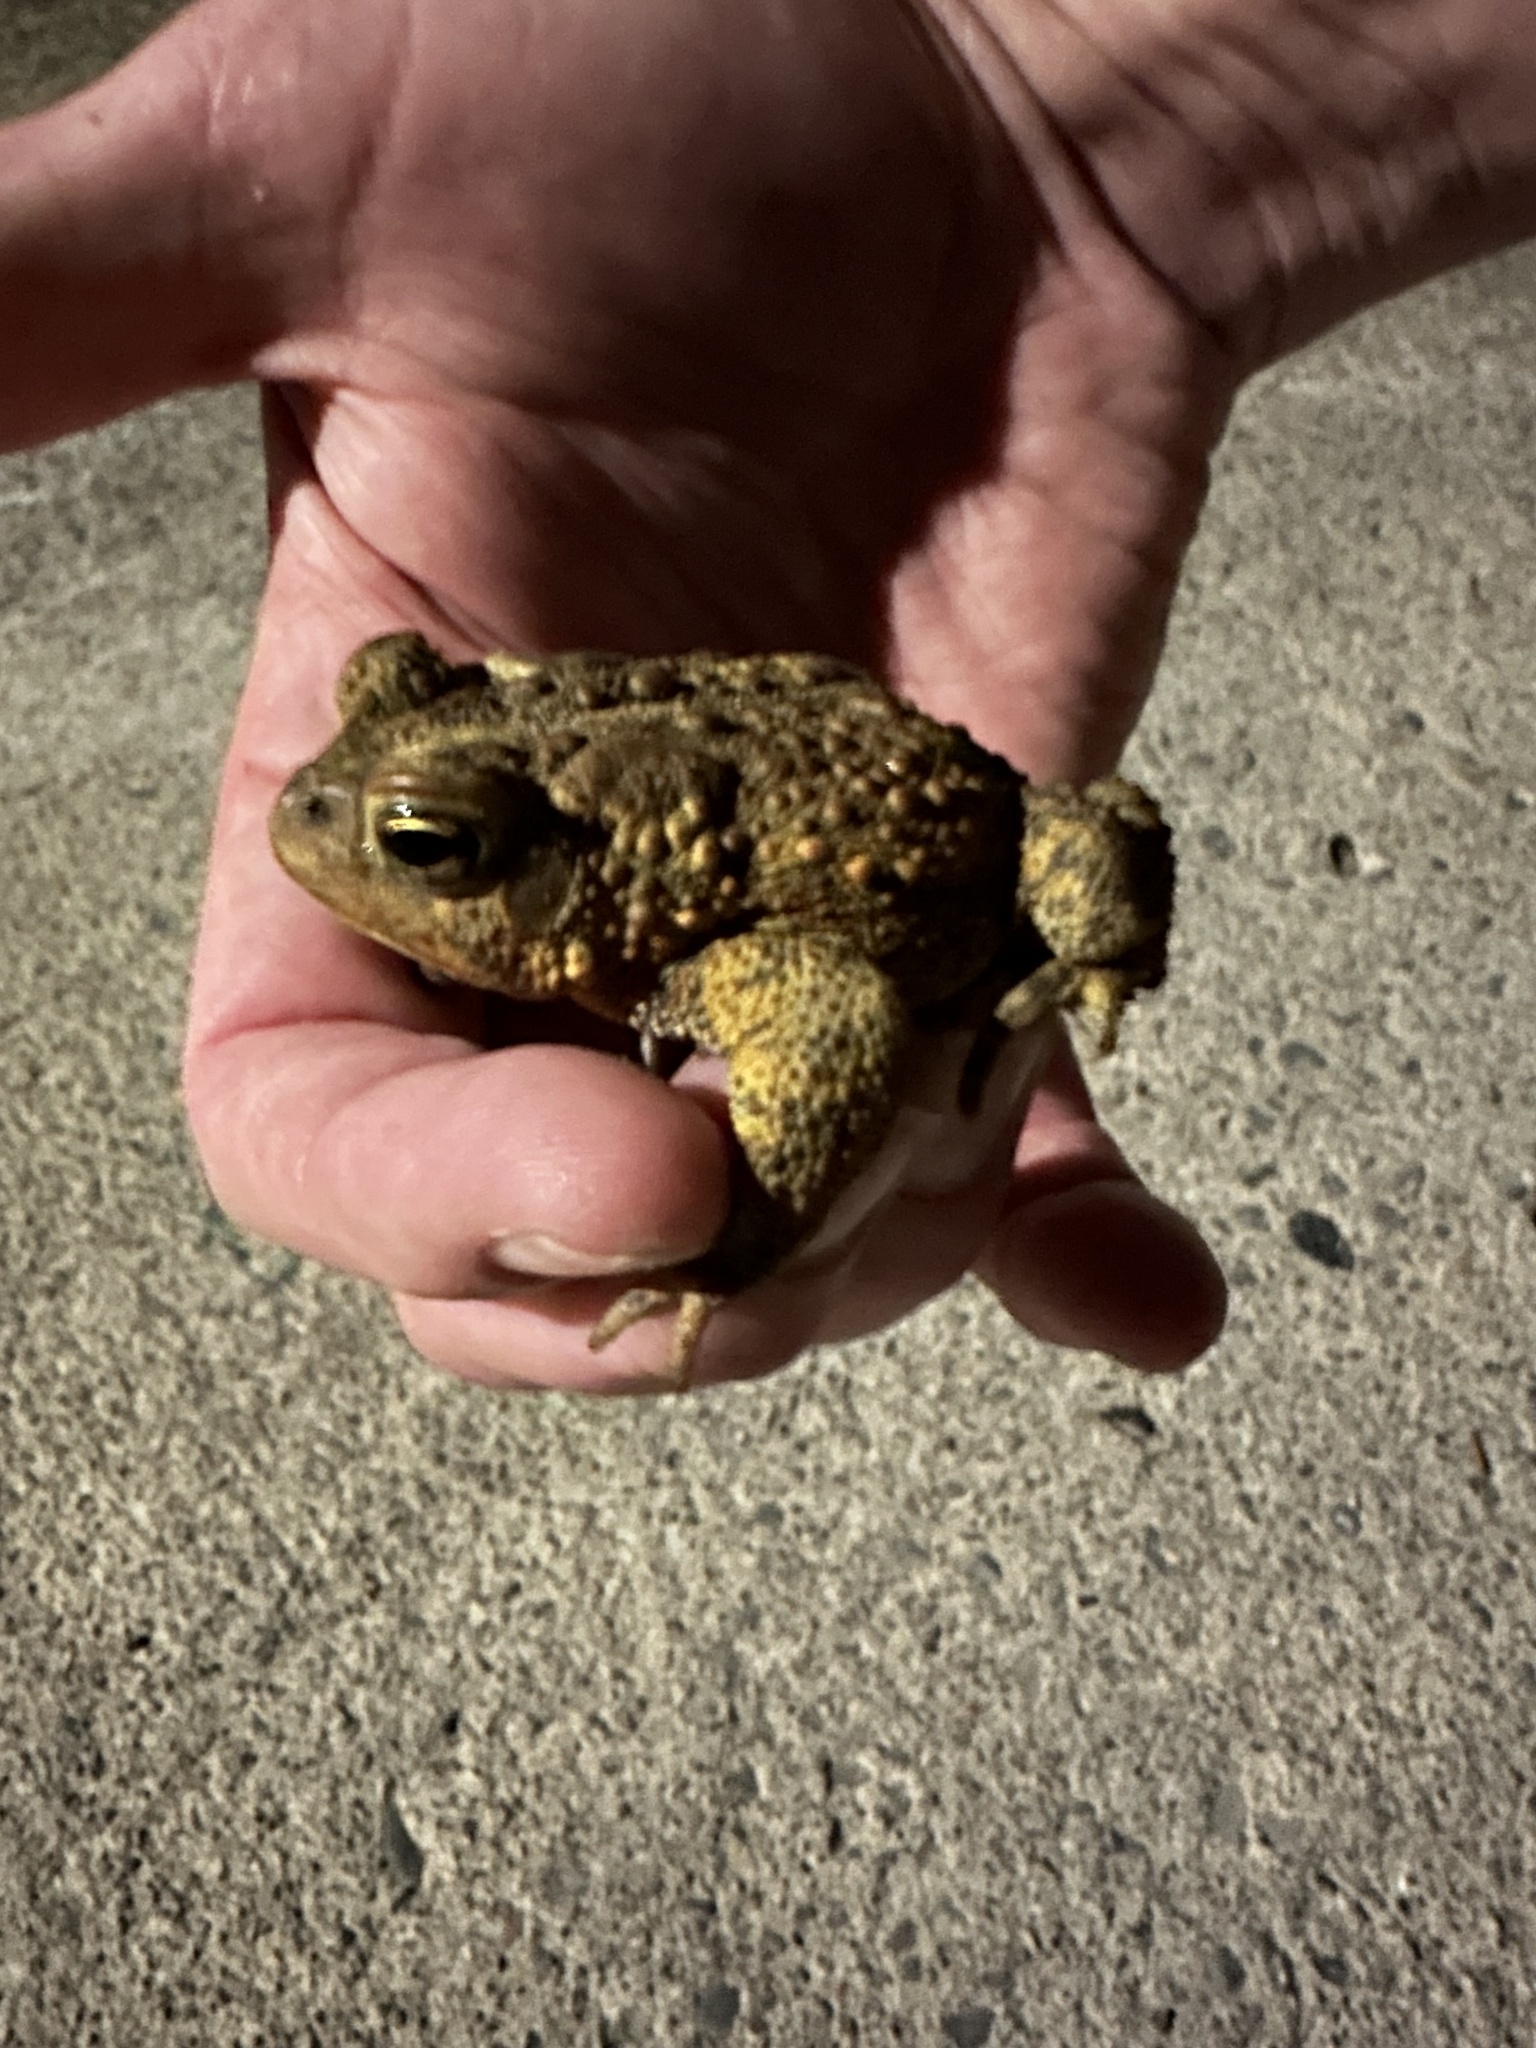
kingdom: Animalia
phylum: Chordata
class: Amphibia
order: Anura
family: Bufonidae
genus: Anaxyrus
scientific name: Anaxyrus americanus
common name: American toad
